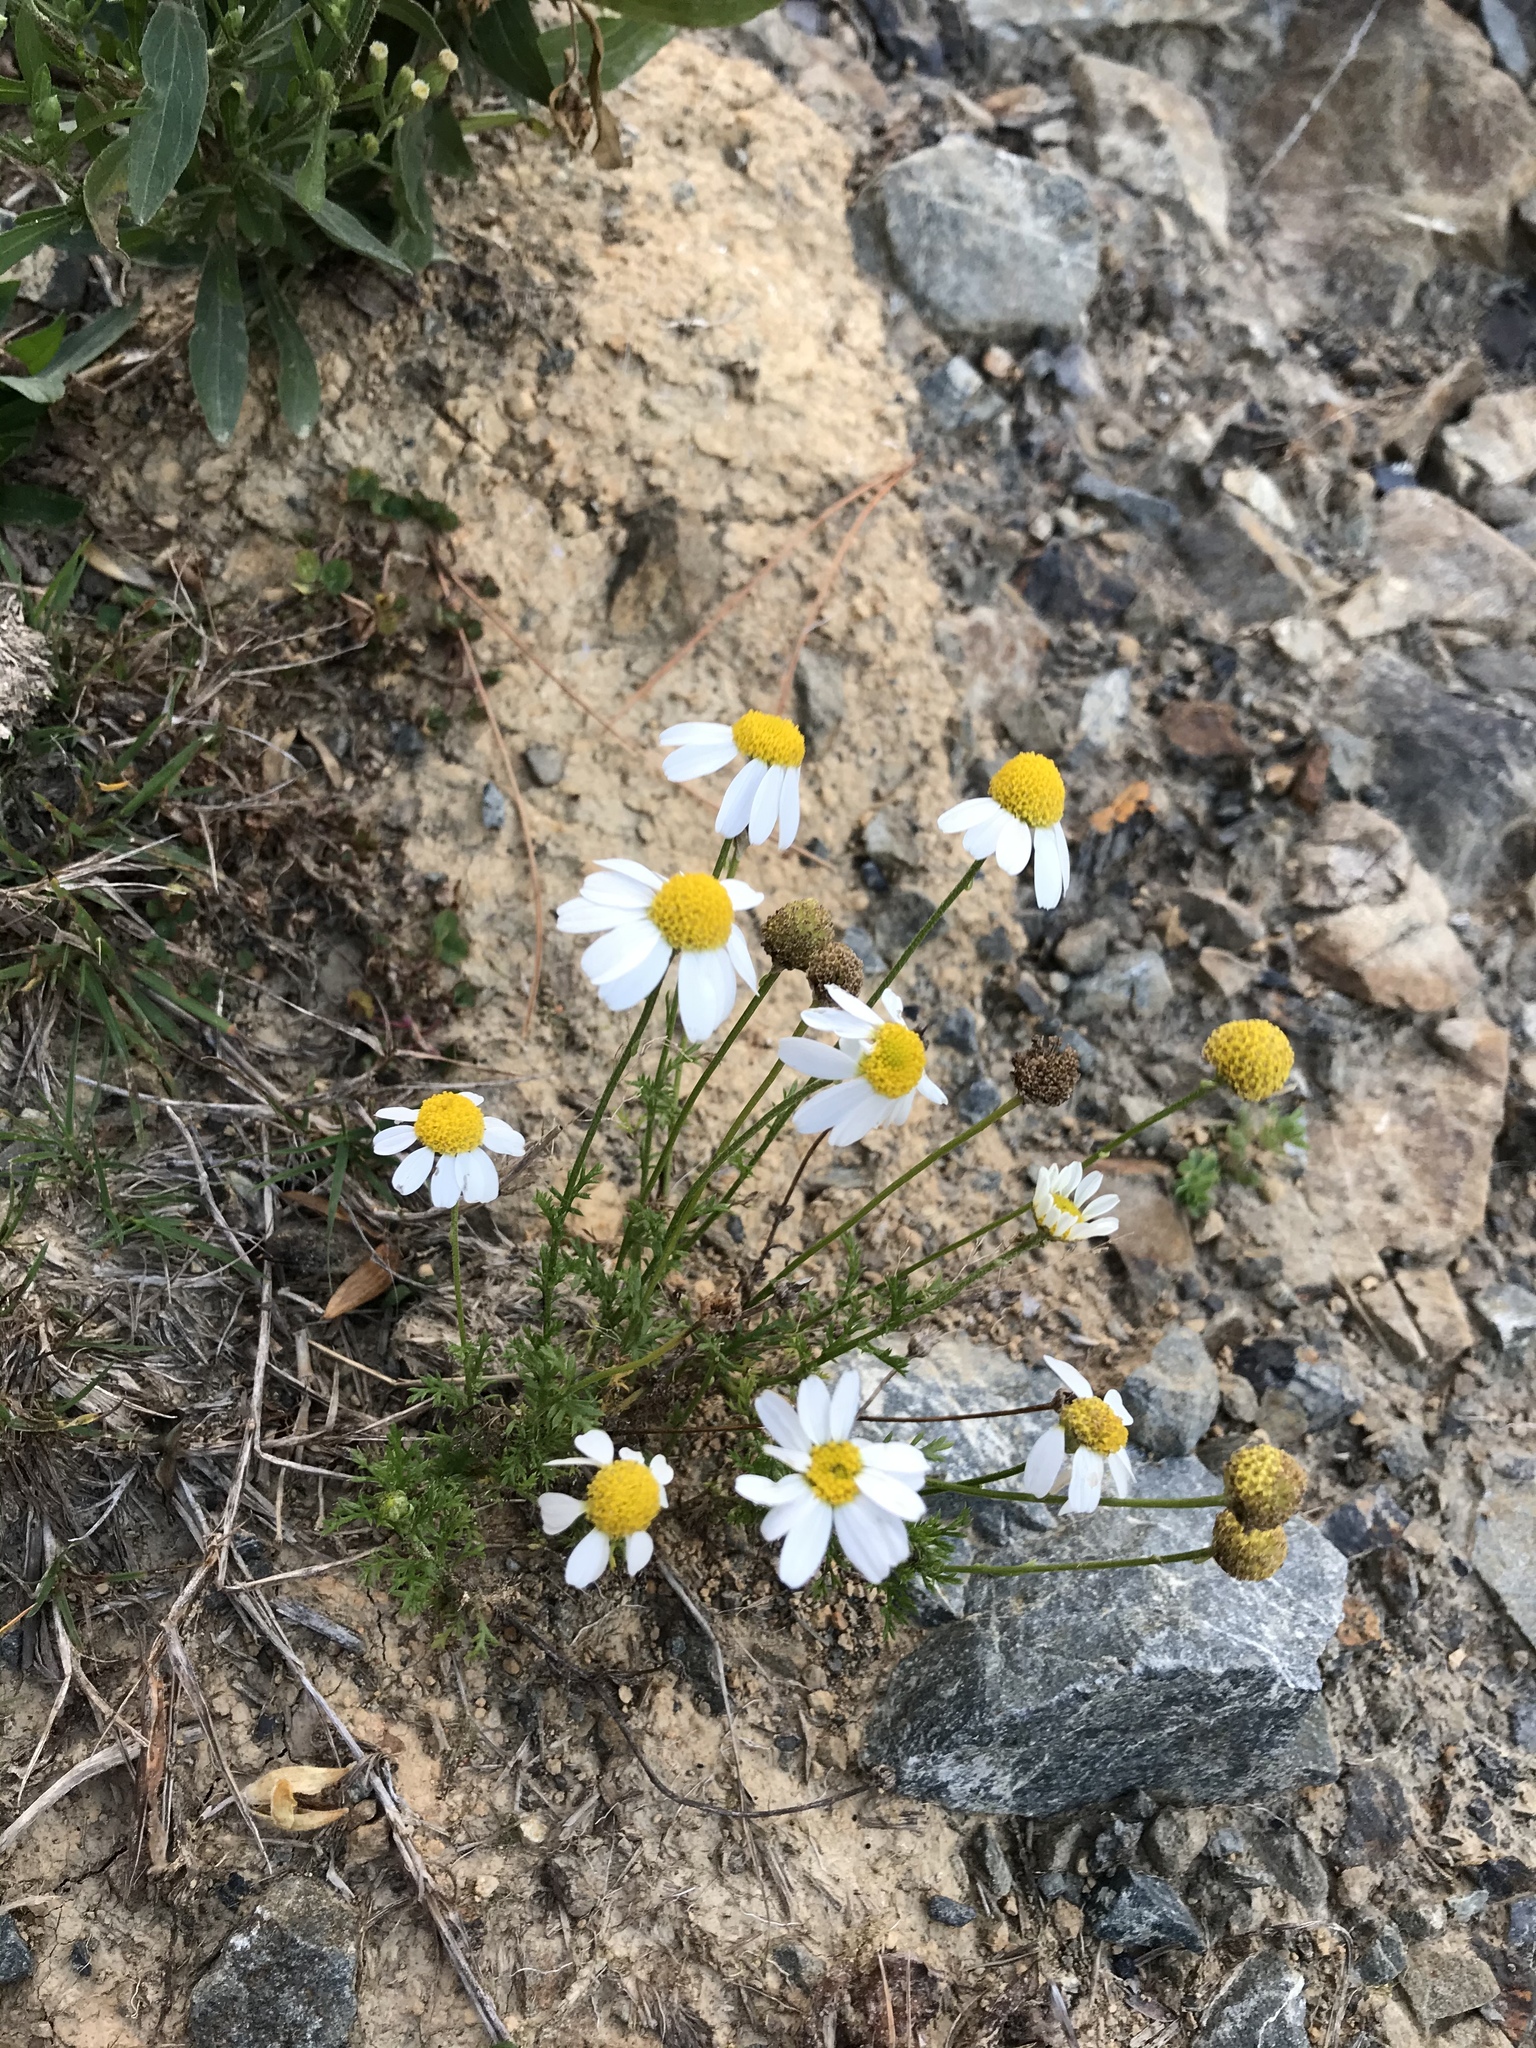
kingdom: Plantae
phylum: Tracheophyta
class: Magnoliopsida
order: Asterales
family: Asteraceae
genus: Matricaria
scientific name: Matricaria chamomilla
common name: Scented mayweed
